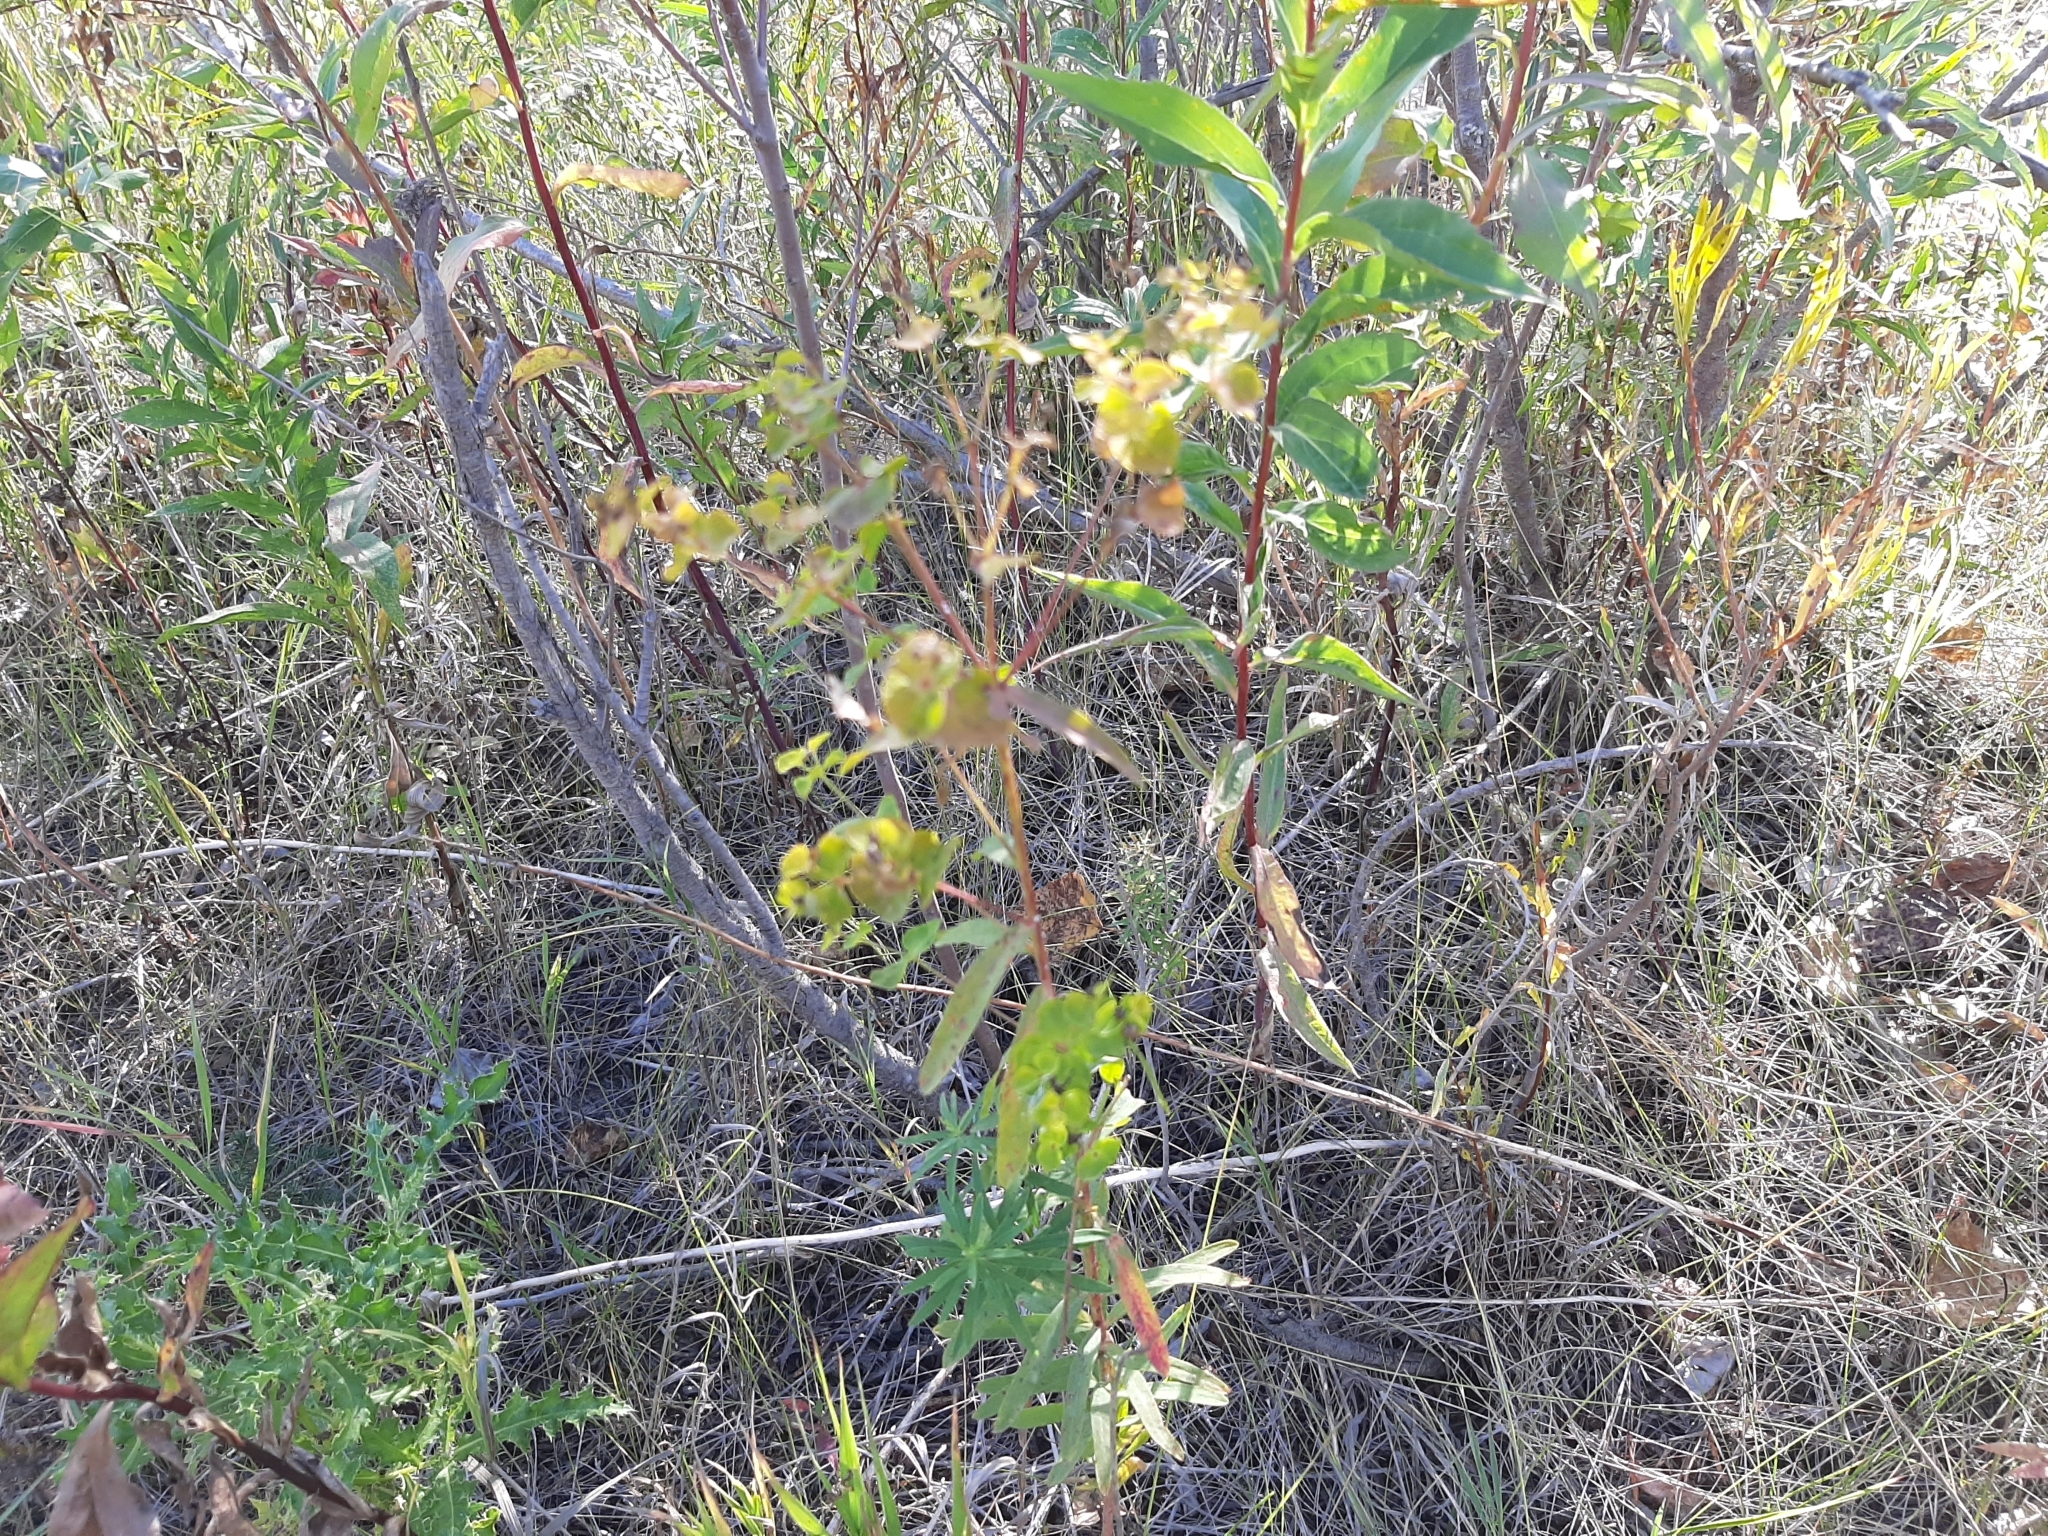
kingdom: Plantae
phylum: Tracheophyta
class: Magnoliopsida
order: Malpighiales
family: Euphorbiaceae
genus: Euphorbia
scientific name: Euphorbia virgata
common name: Leafy spurge
